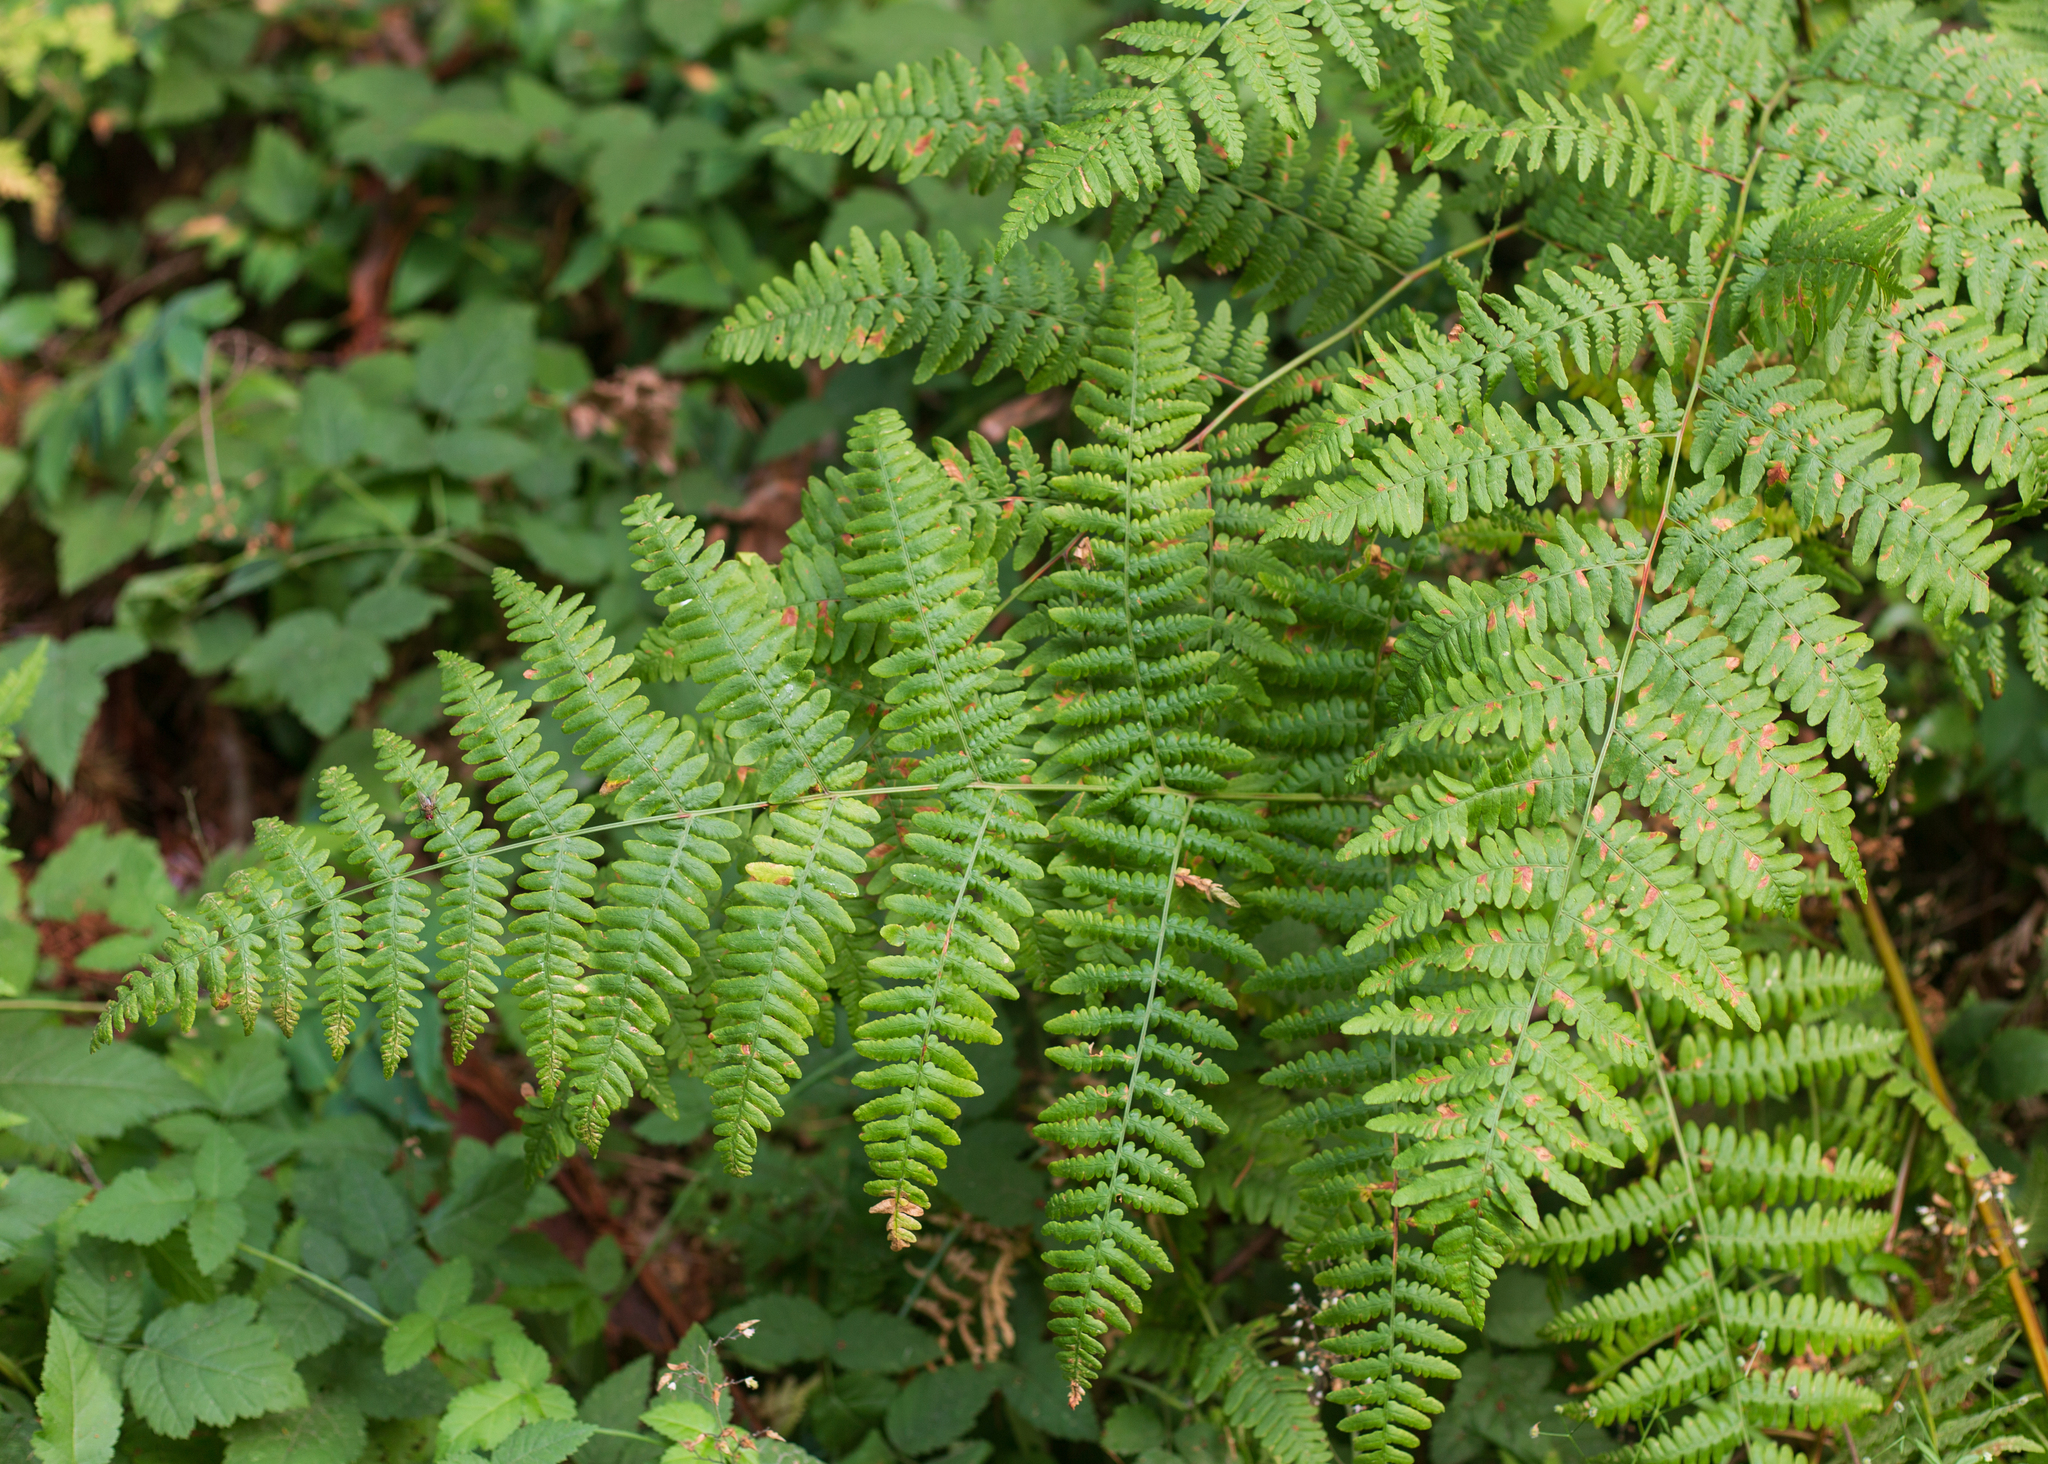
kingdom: Plantae
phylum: Tracheophyta
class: Polypodiopsida
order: Polypodiales
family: Dennstaedtiaceae
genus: Pteridium
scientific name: Pteridium aquilinum
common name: Bracken
